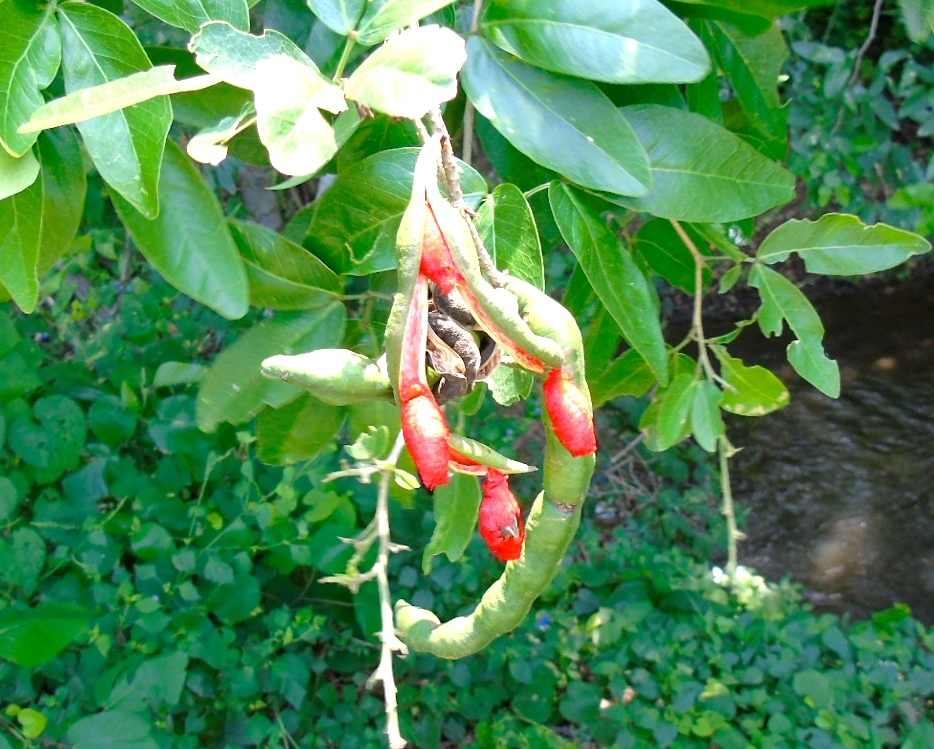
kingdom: Plantae
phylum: Tracheophyta
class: Magnoliopsida
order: Fabales
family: Fabaceae
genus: Pithecellobium
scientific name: Pithecellobium lanceolatum
